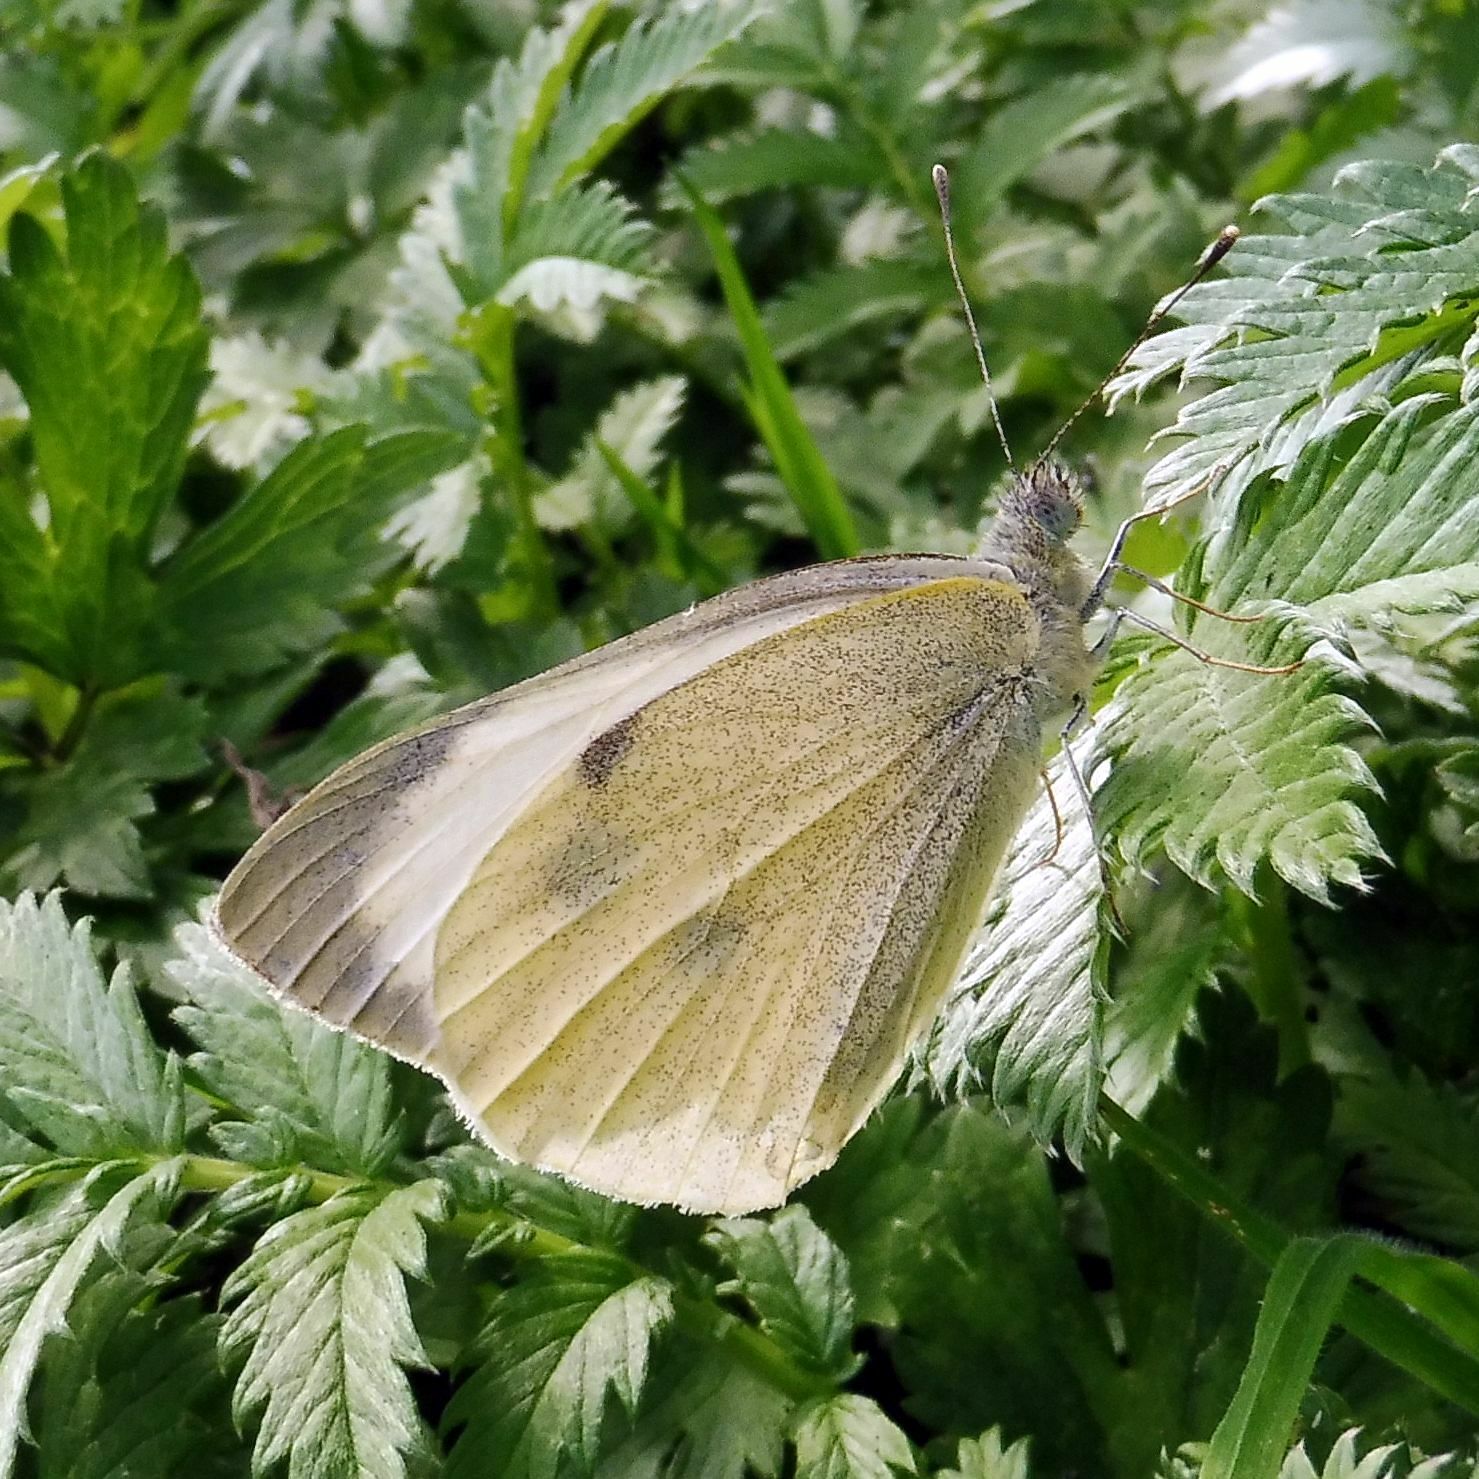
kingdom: Animalia
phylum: Arthropoda
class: Insecta
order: Lepidoptera
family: Pieridae
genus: Pieris
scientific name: Pieris brassicae
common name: Large white
